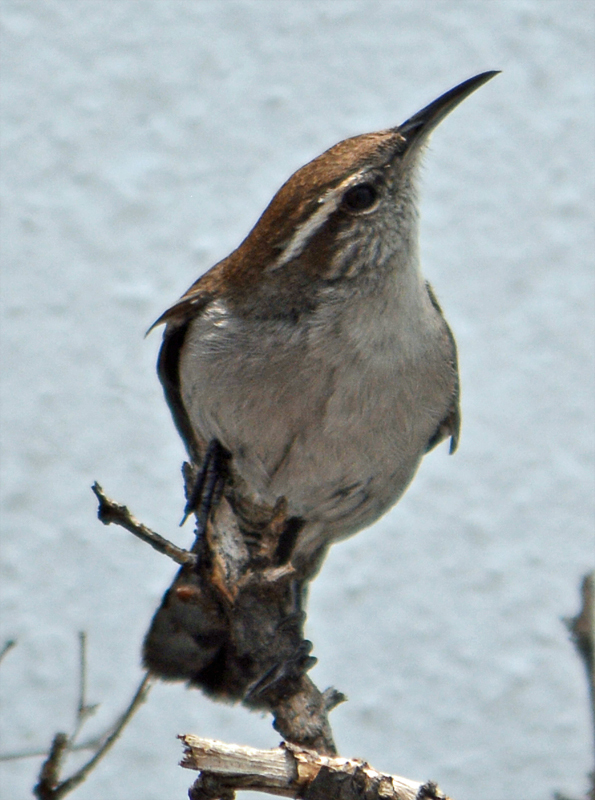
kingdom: Animalia
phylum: Chordata
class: Aves
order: Passeriformes
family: Troglodytidae
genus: Thryomanes
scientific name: Thryomanes bewickii
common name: Bewick's wren
